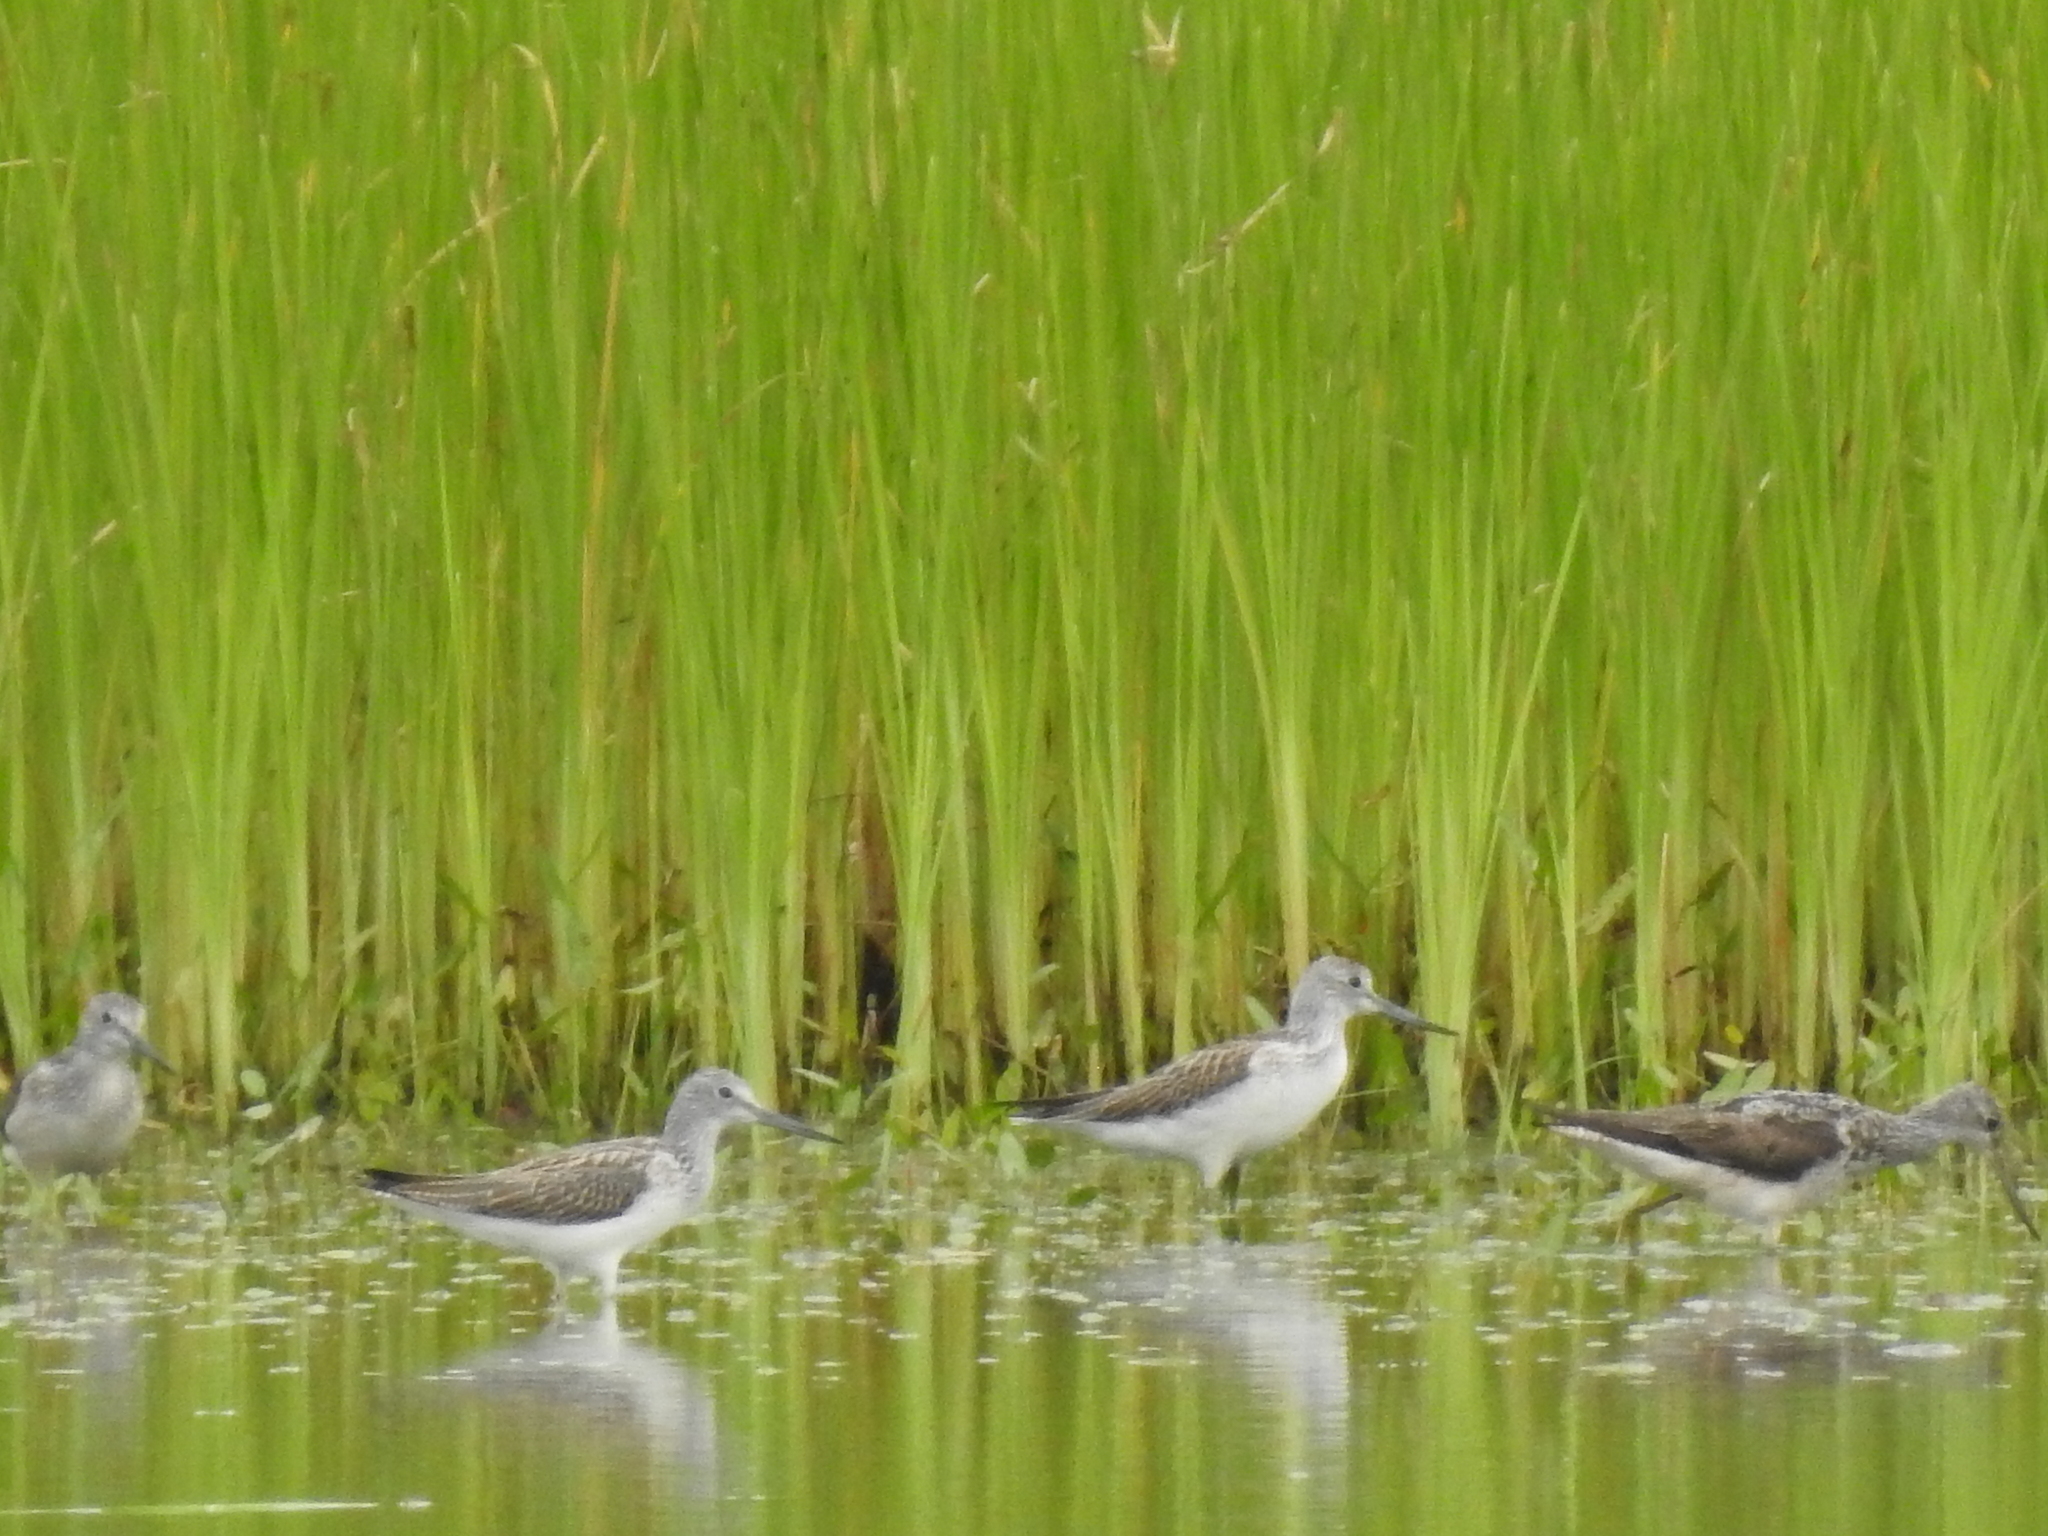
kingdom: Animalia
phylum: Chordata
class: Aves
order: Charadriiformes
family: Scolopacidae
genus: Tringa
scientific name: Tringa nebularia
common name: Common greenshank
